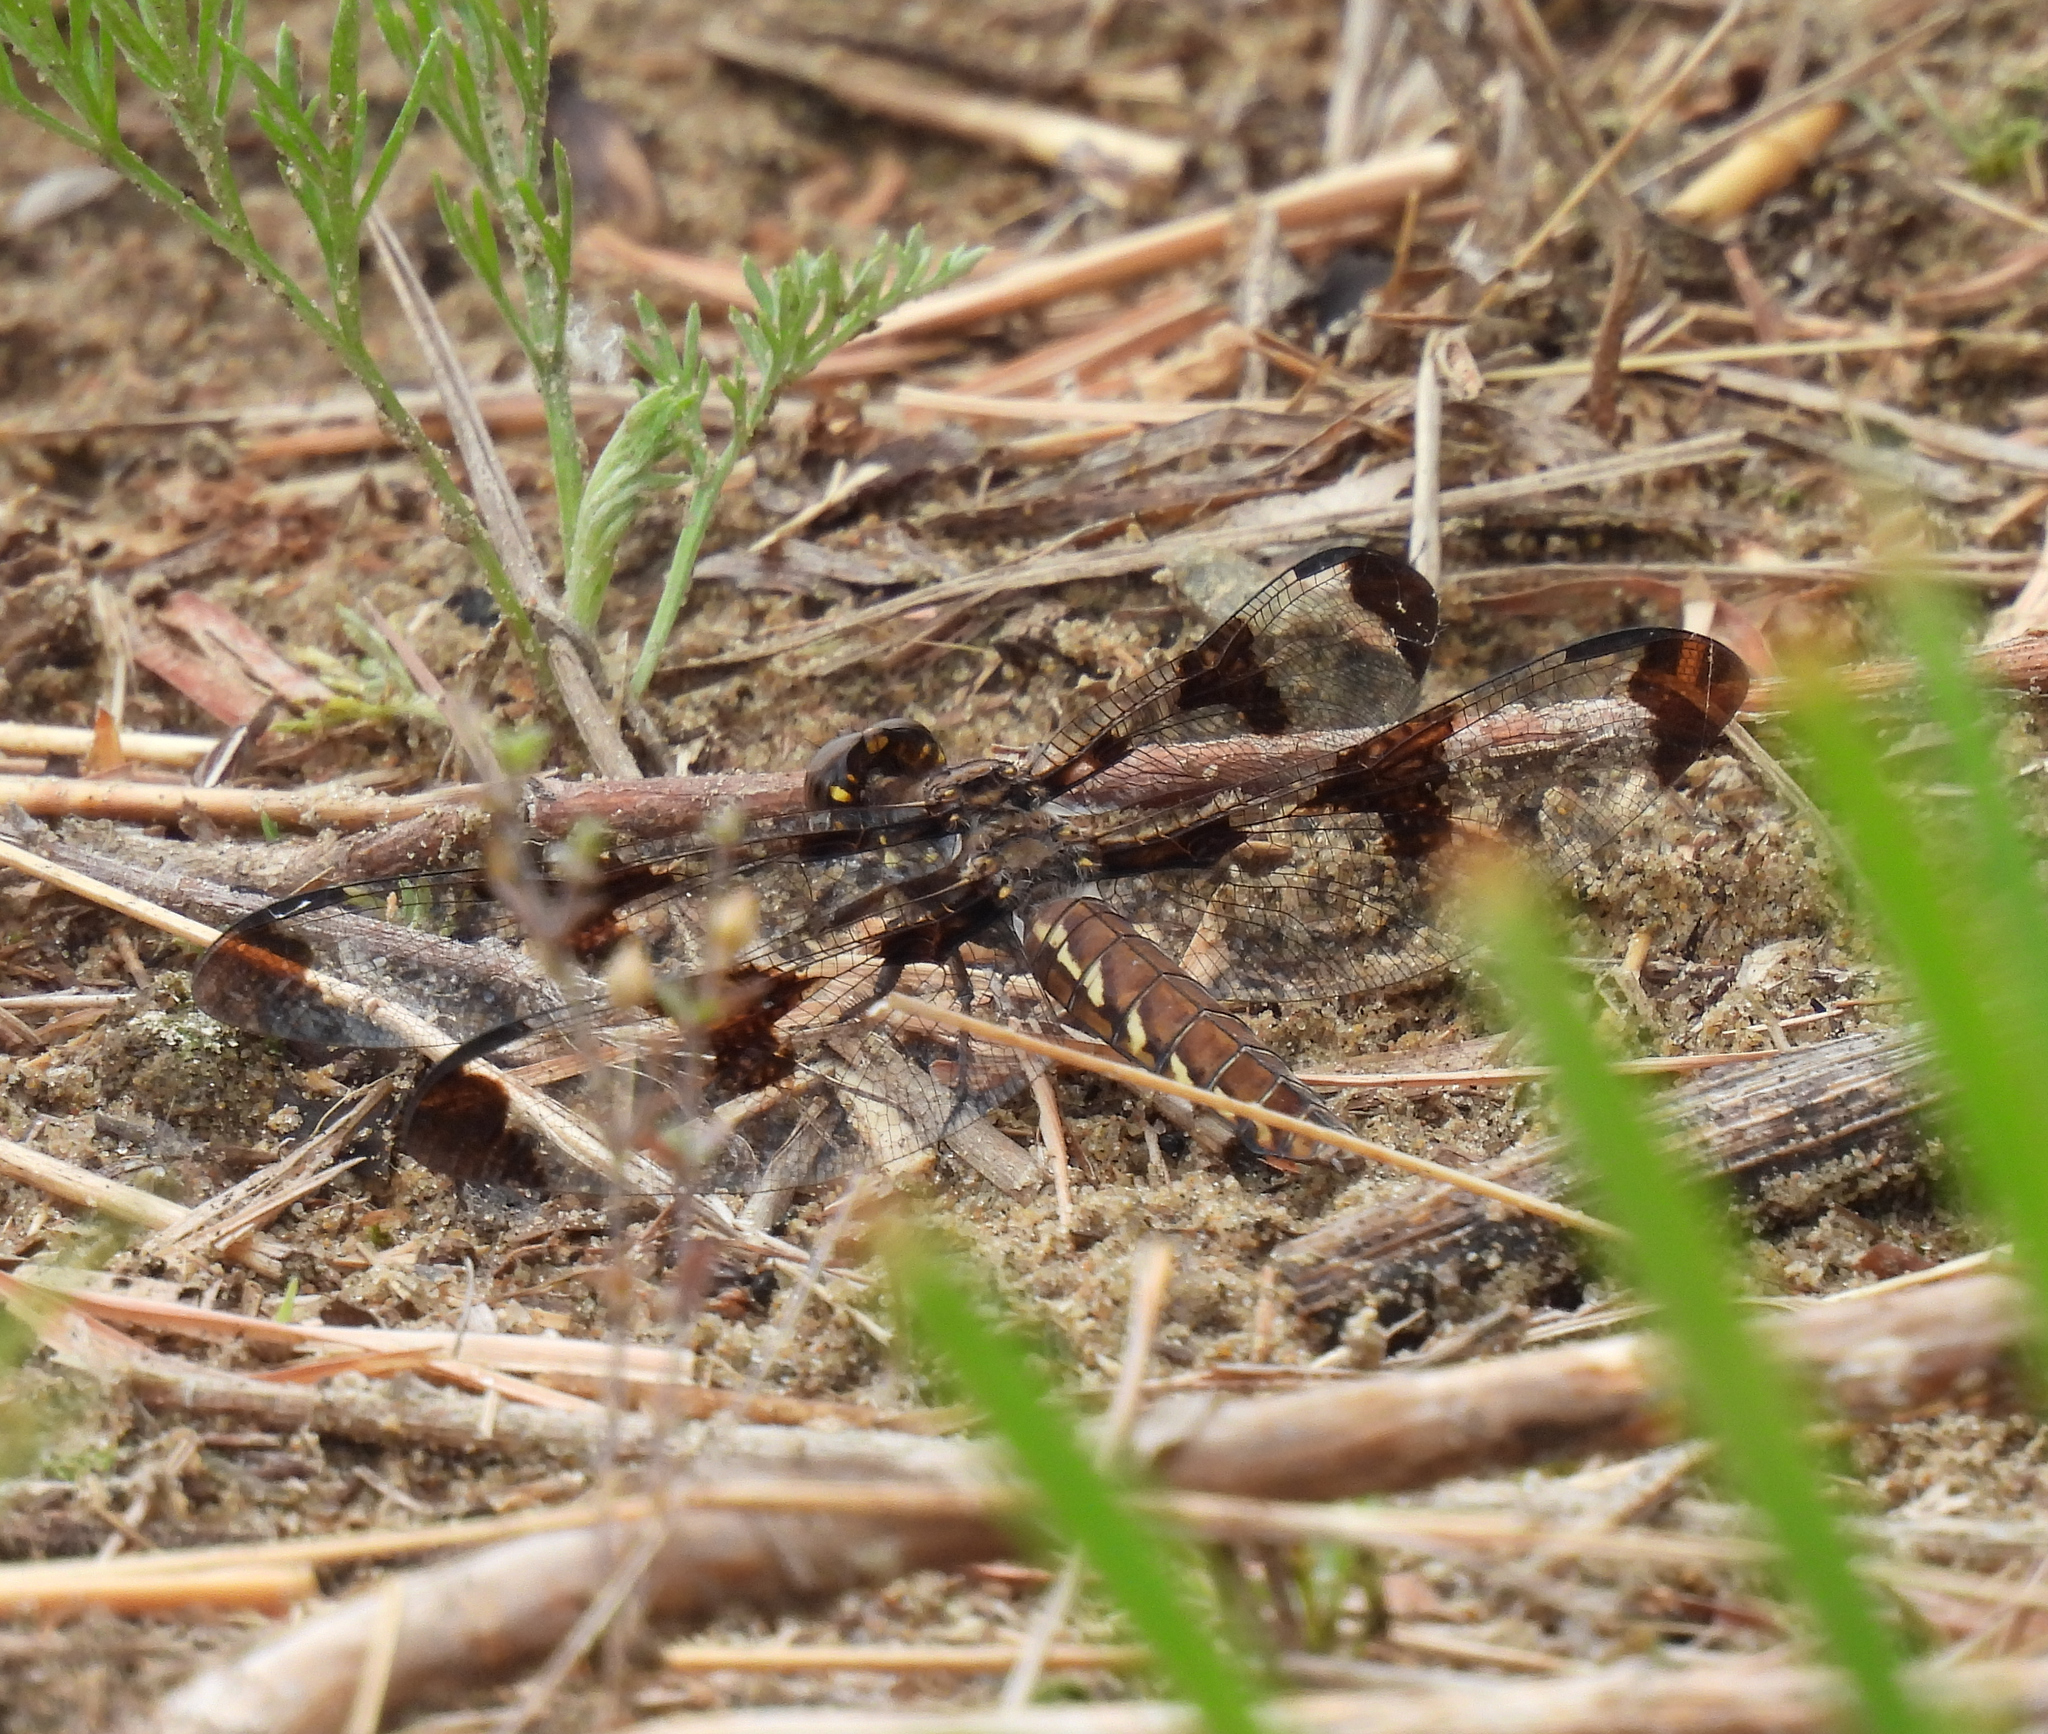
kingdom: Animalia
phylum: Arthropoda
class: Insecta
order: Odonata
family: Libellulidae
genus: Plathemis
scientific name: Plathemis lydia
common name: Common whitetail
